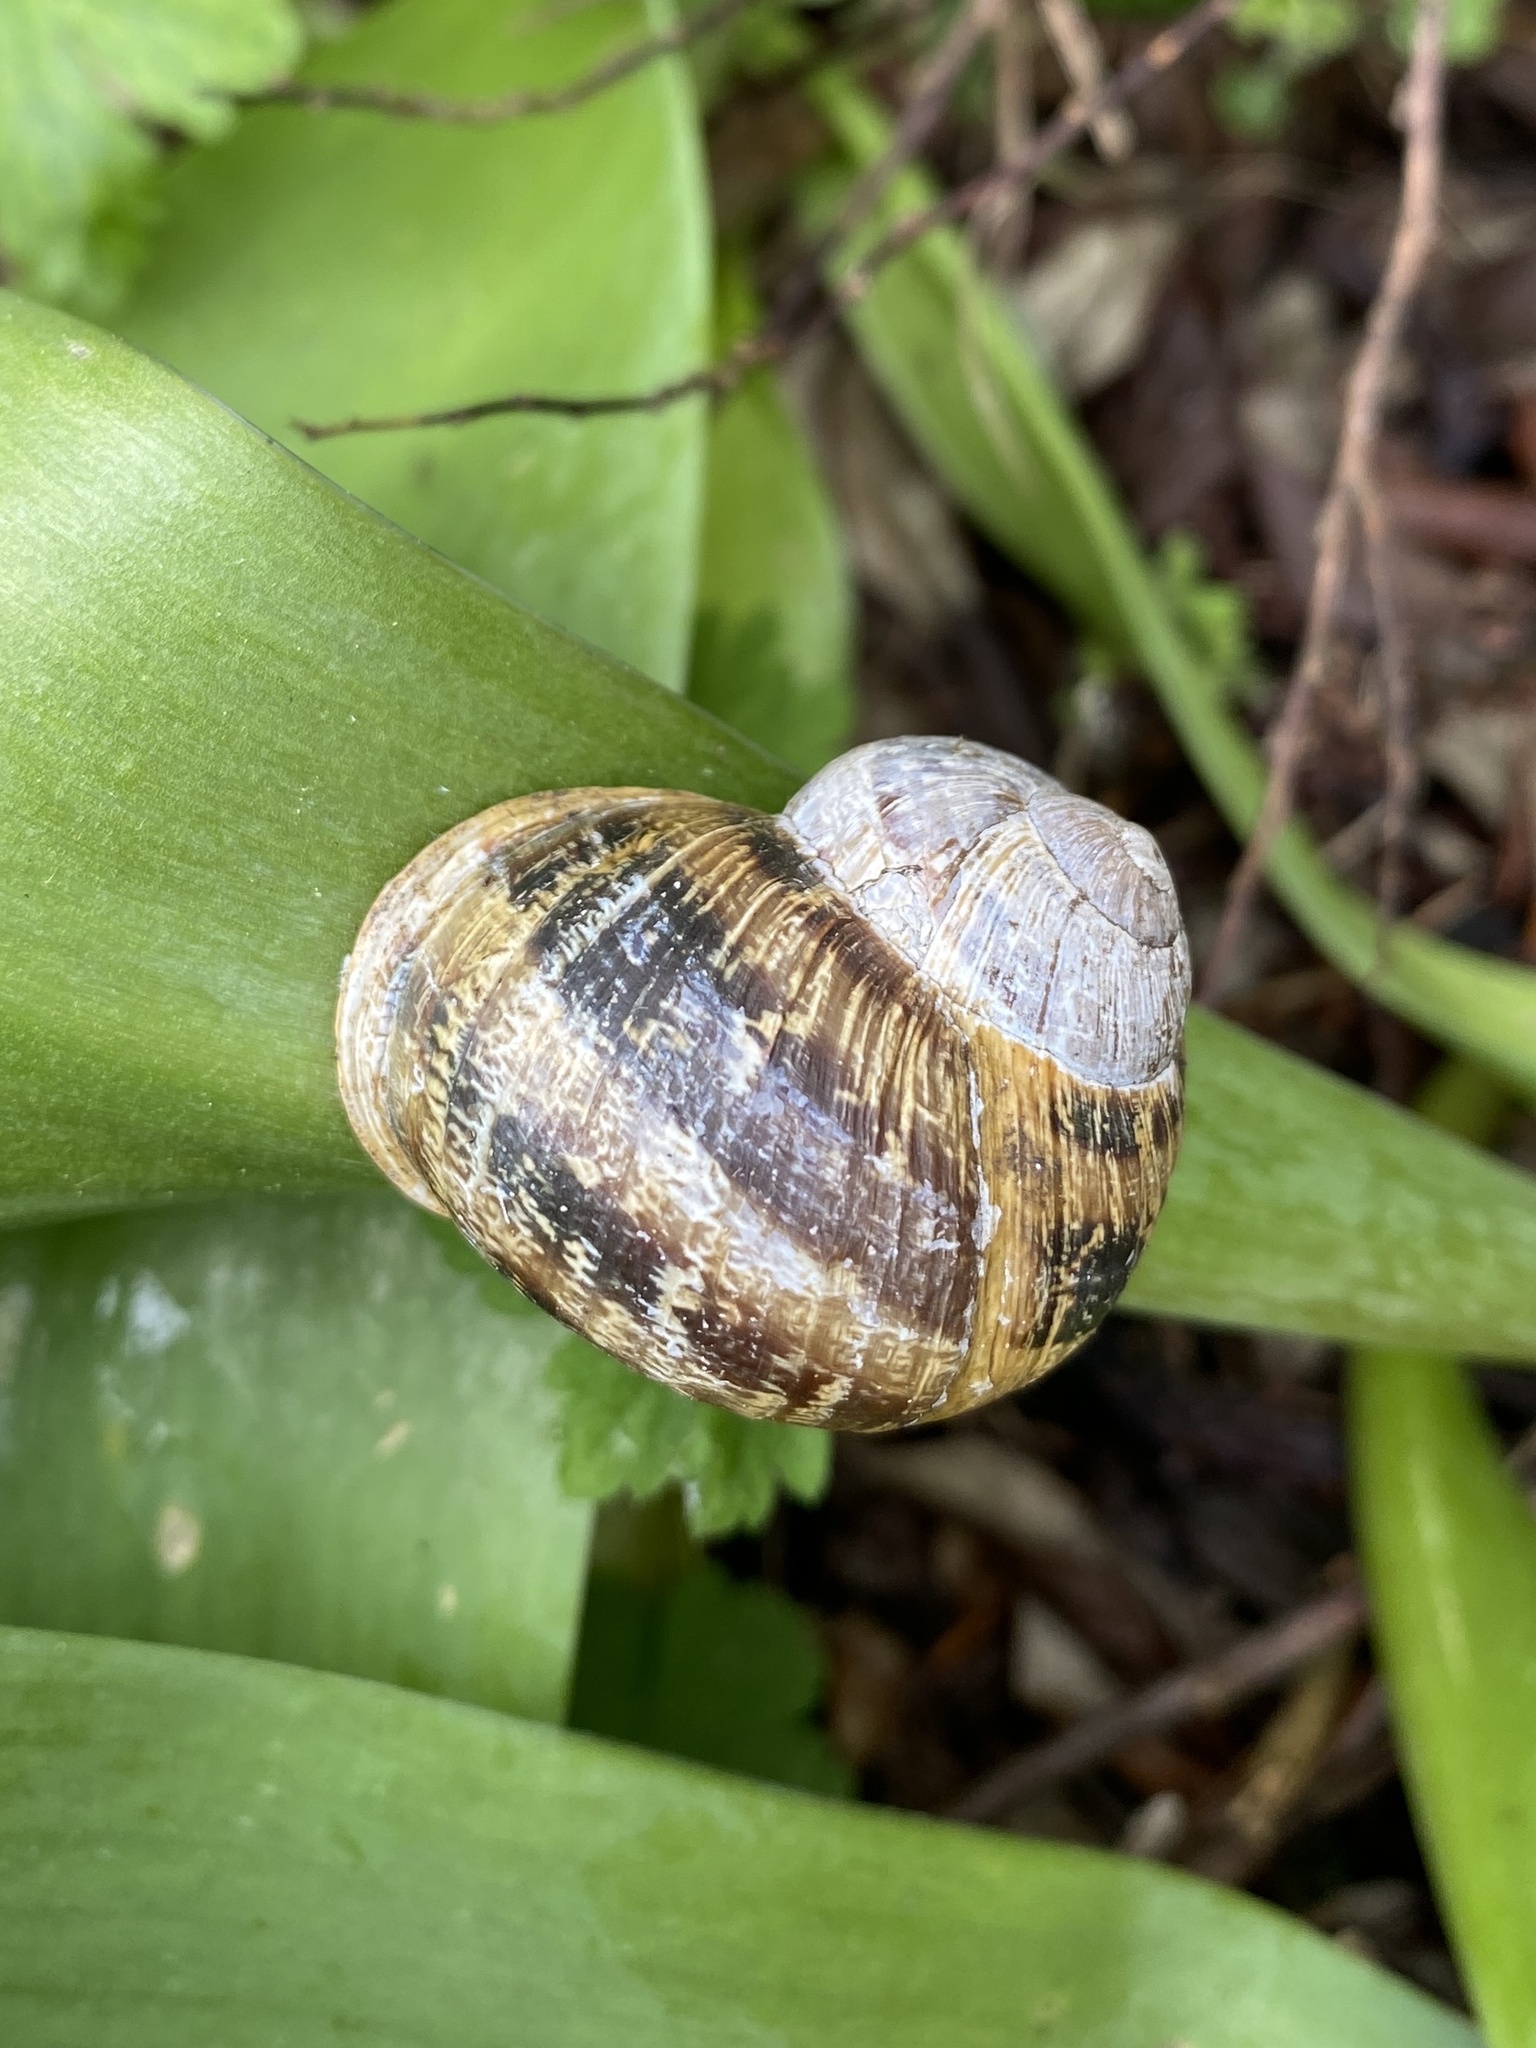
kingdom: Animalia
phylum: Mollusca
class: Gastropoda
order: Stylommatophora
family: Helicidae
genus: Cornu
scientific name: Cornu aspersum
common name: Brown garden snail
